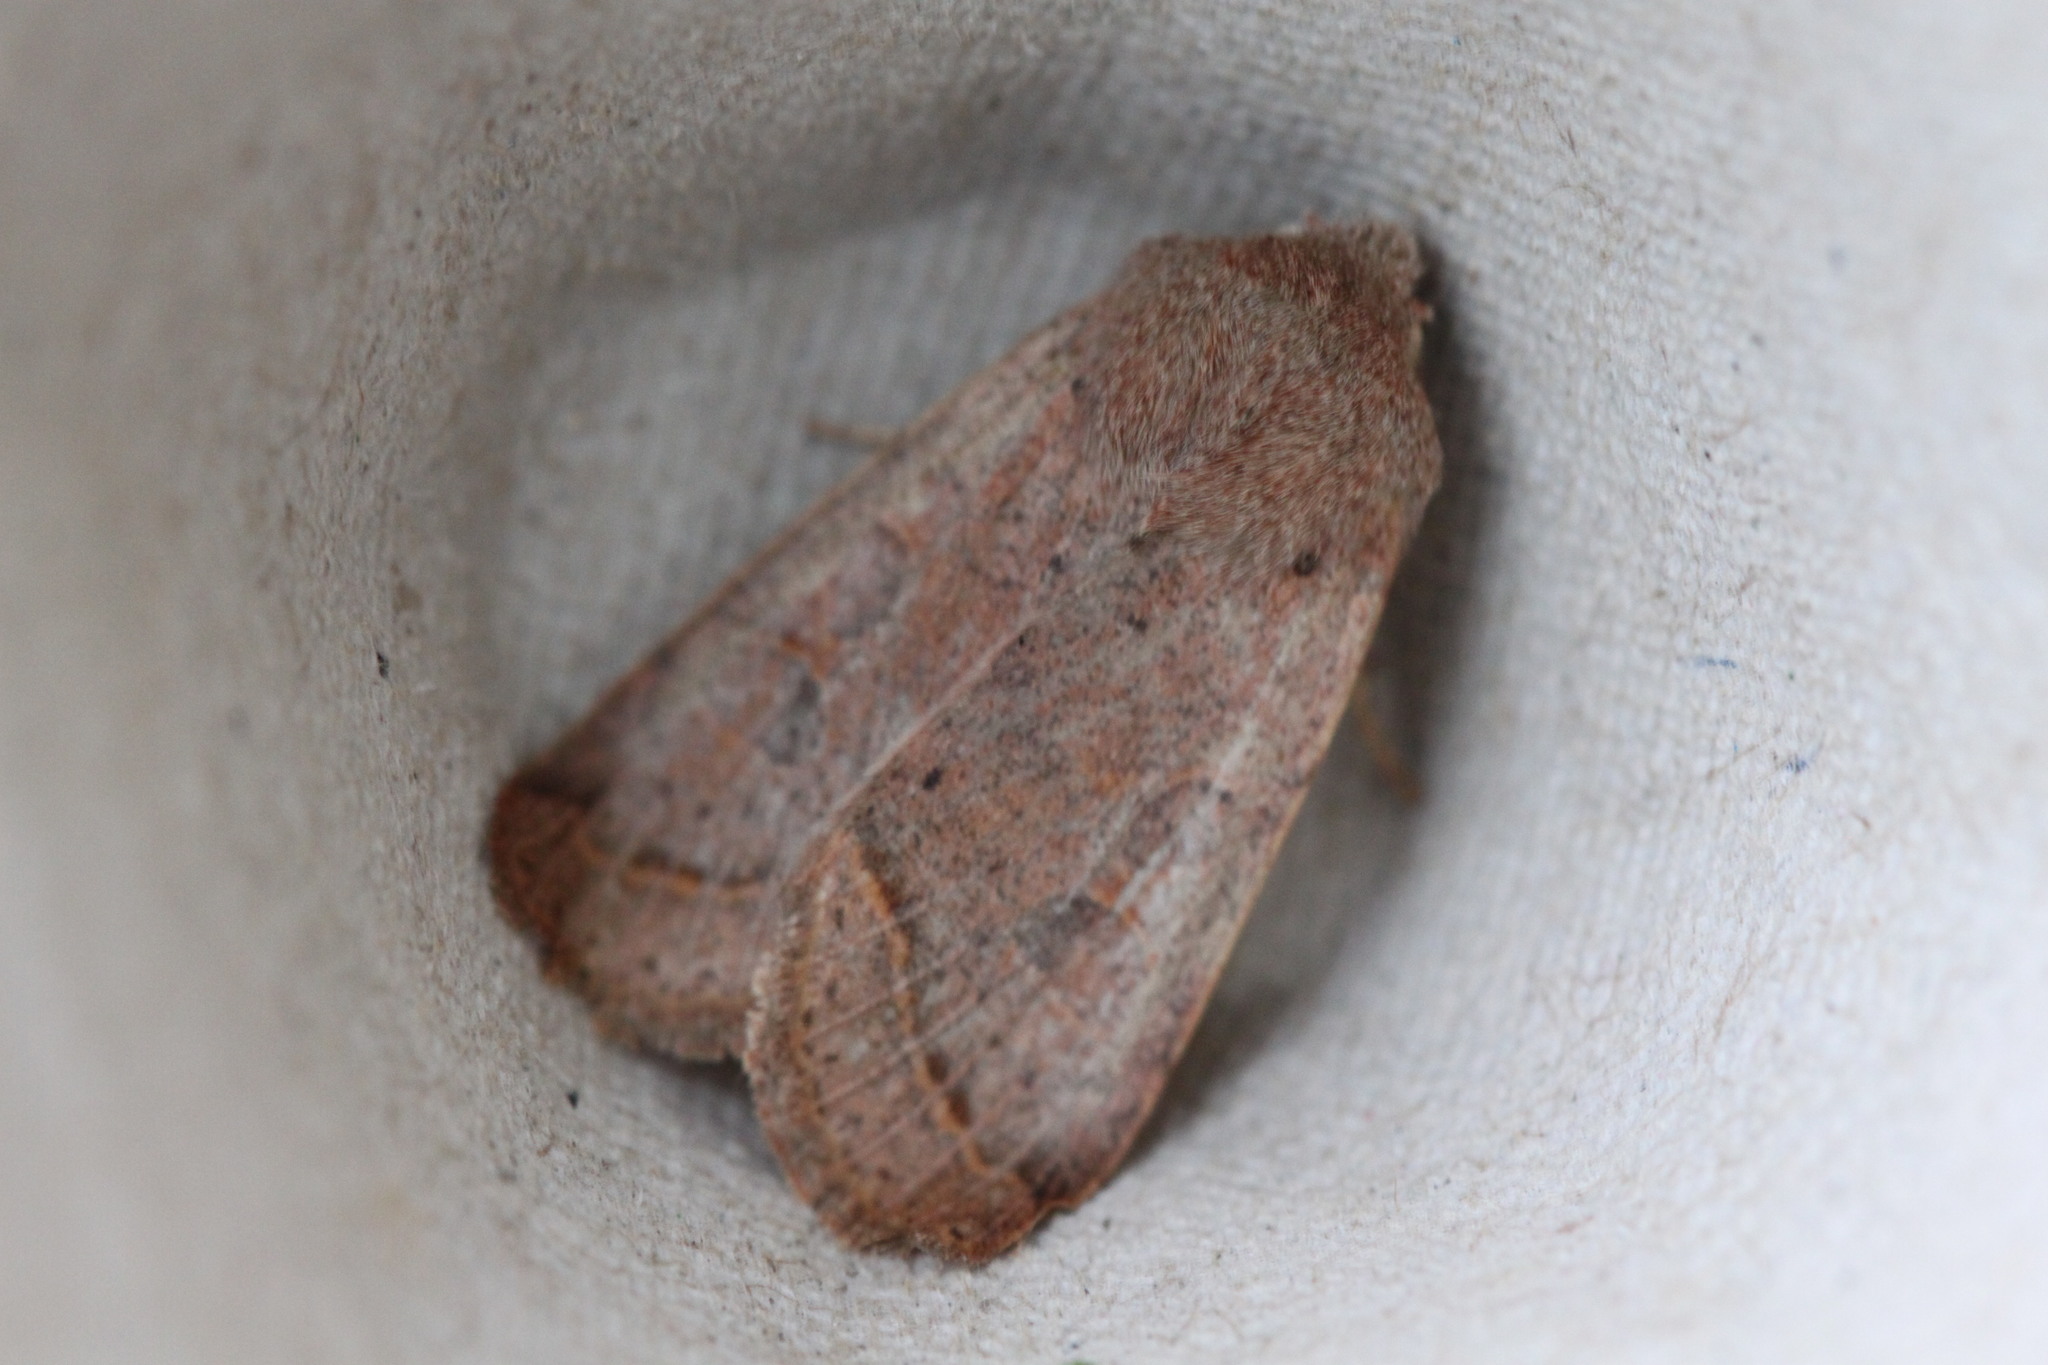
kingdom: Animalia
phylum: Arthropoda
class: Insecta
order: Lepidoptera
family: Noctuidae
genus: Orthosia
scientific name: Orthosia cerasi
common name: Common quaker
